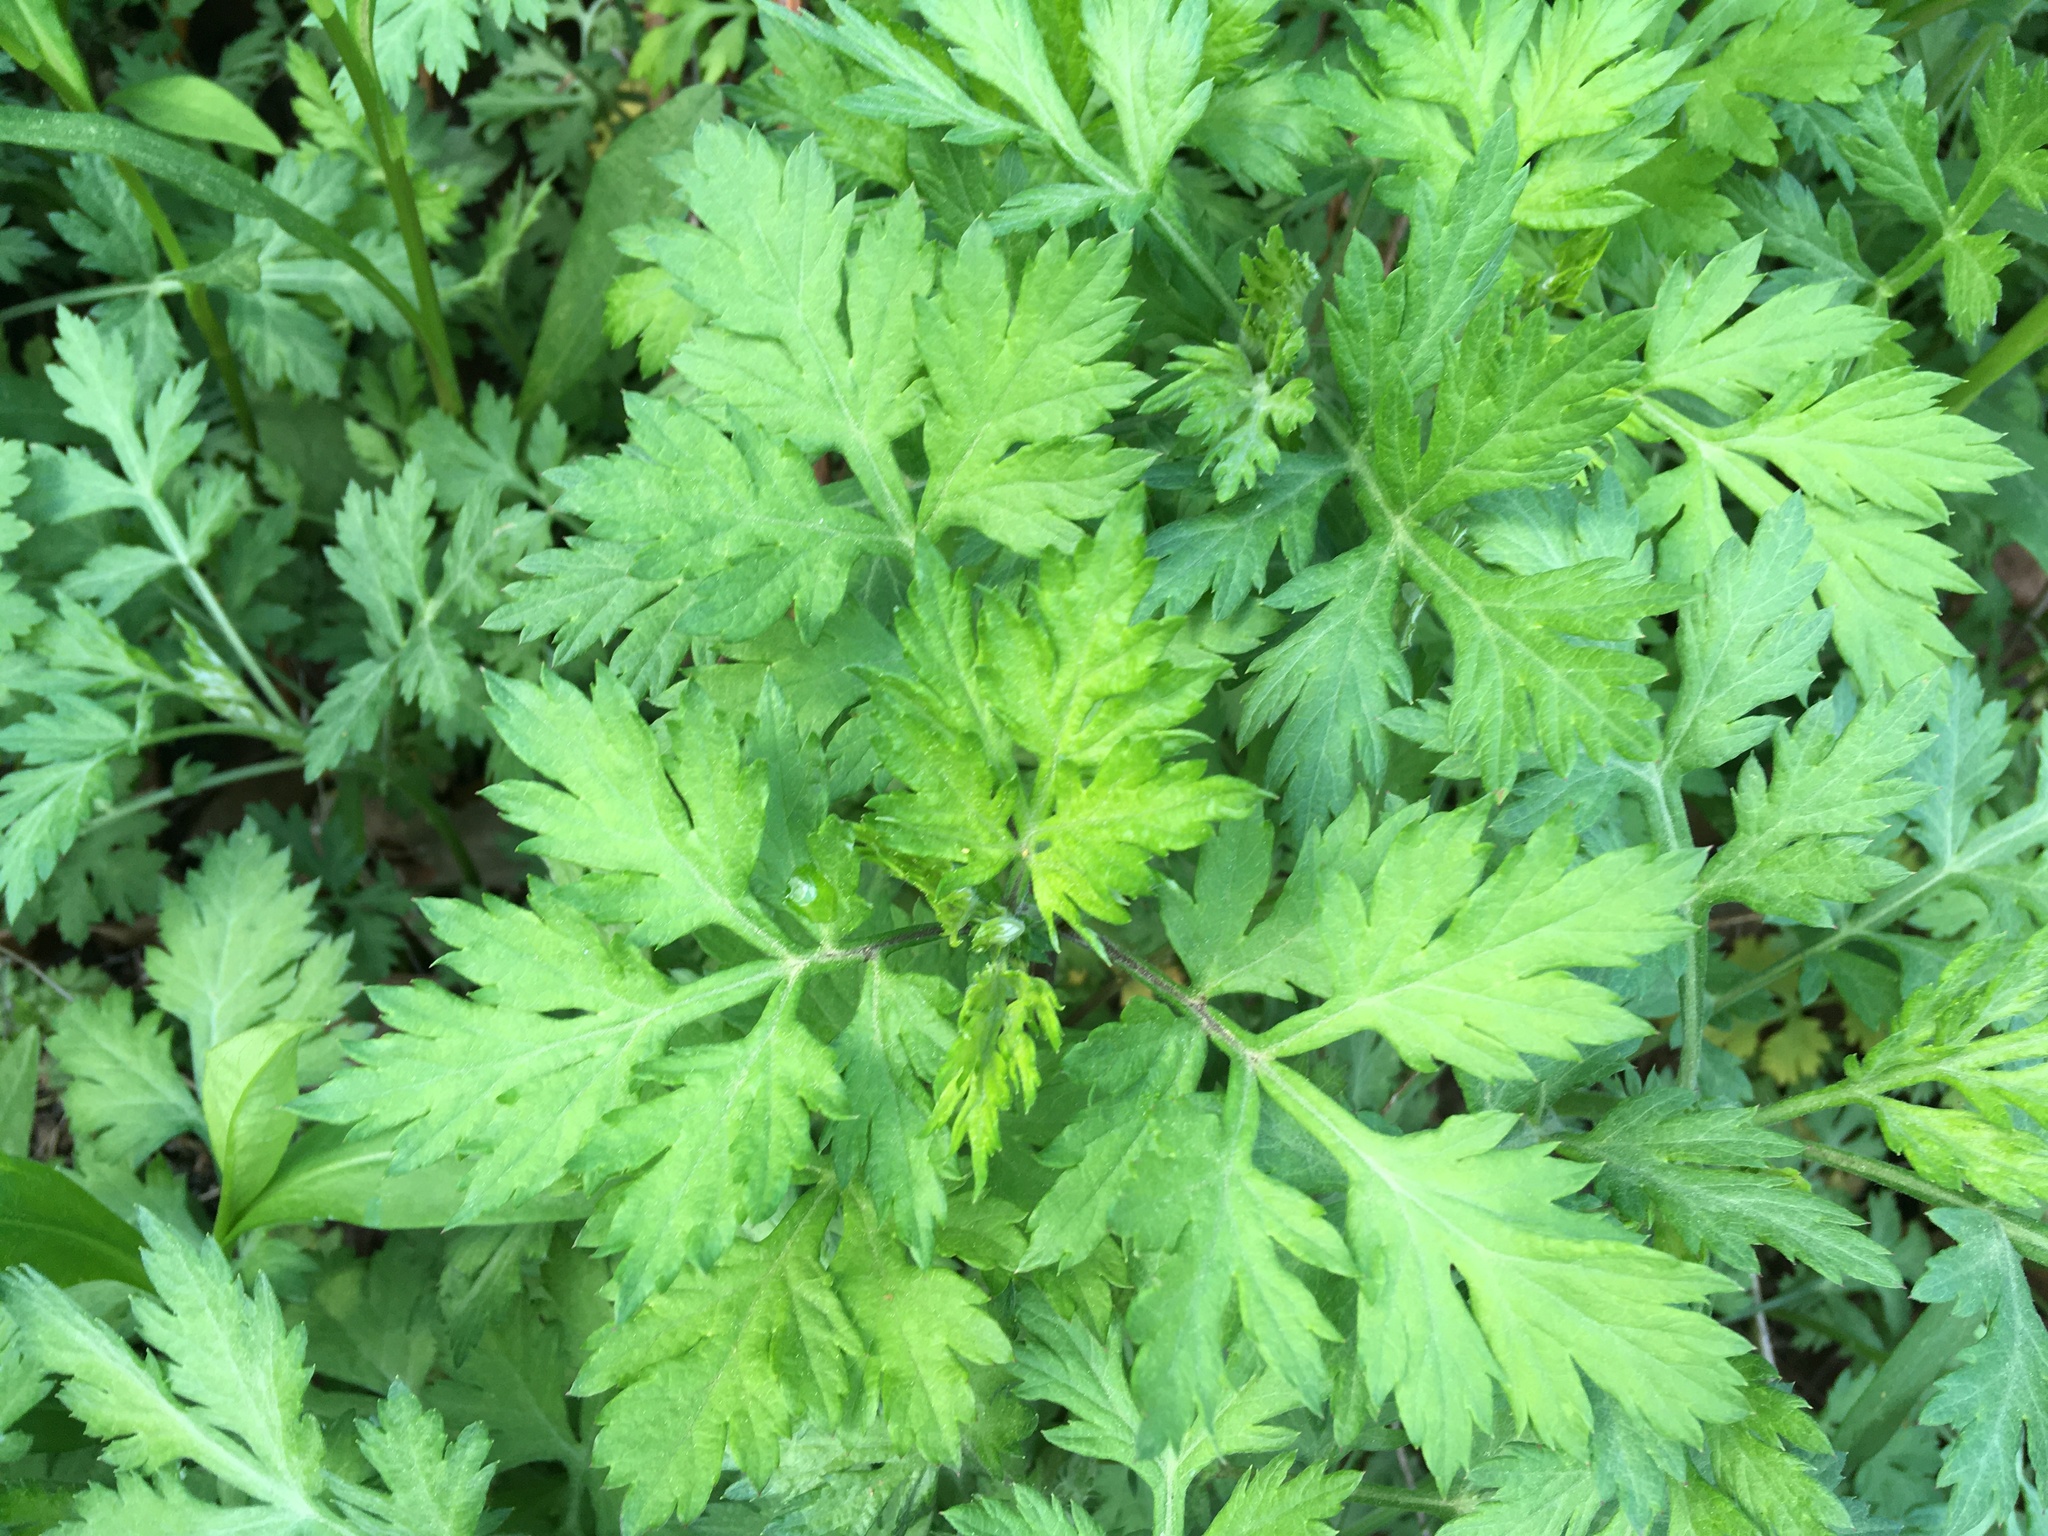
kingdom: Plantae
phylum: Tracheophyta
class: Magnoliopsida
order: Asterales
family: Asteraceae
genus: Artemisia
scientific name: Artemisia vulgaris
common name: Mugwort
